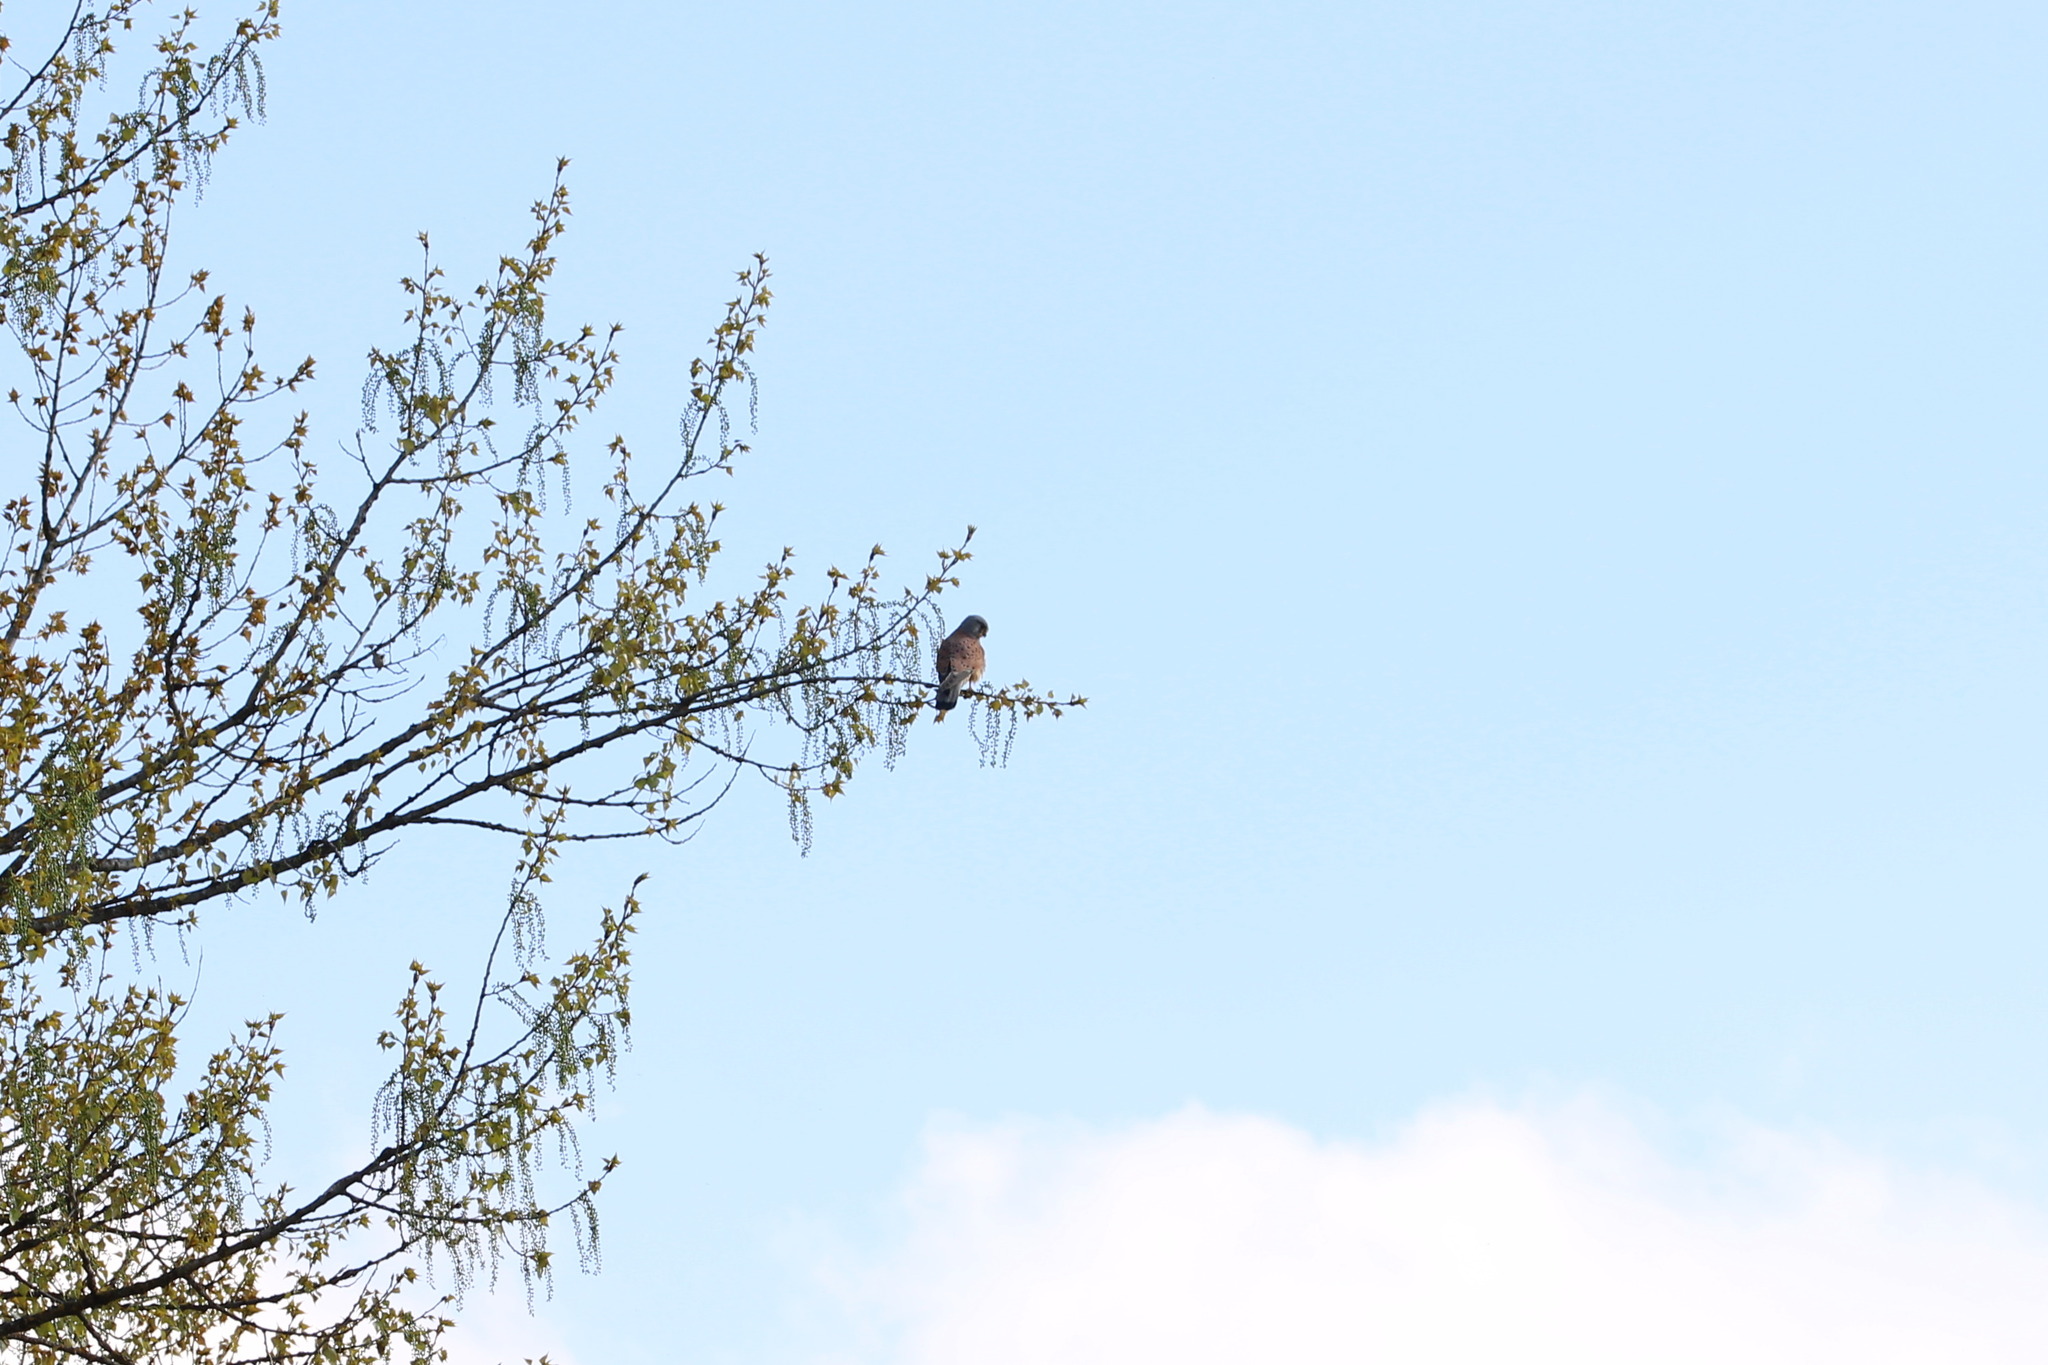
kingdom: Animalia
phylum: Chordata
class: Aves
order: Falconiformes
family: Falconidae
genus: Falco
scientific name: Falco tinnunculus
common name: Common kestrel
